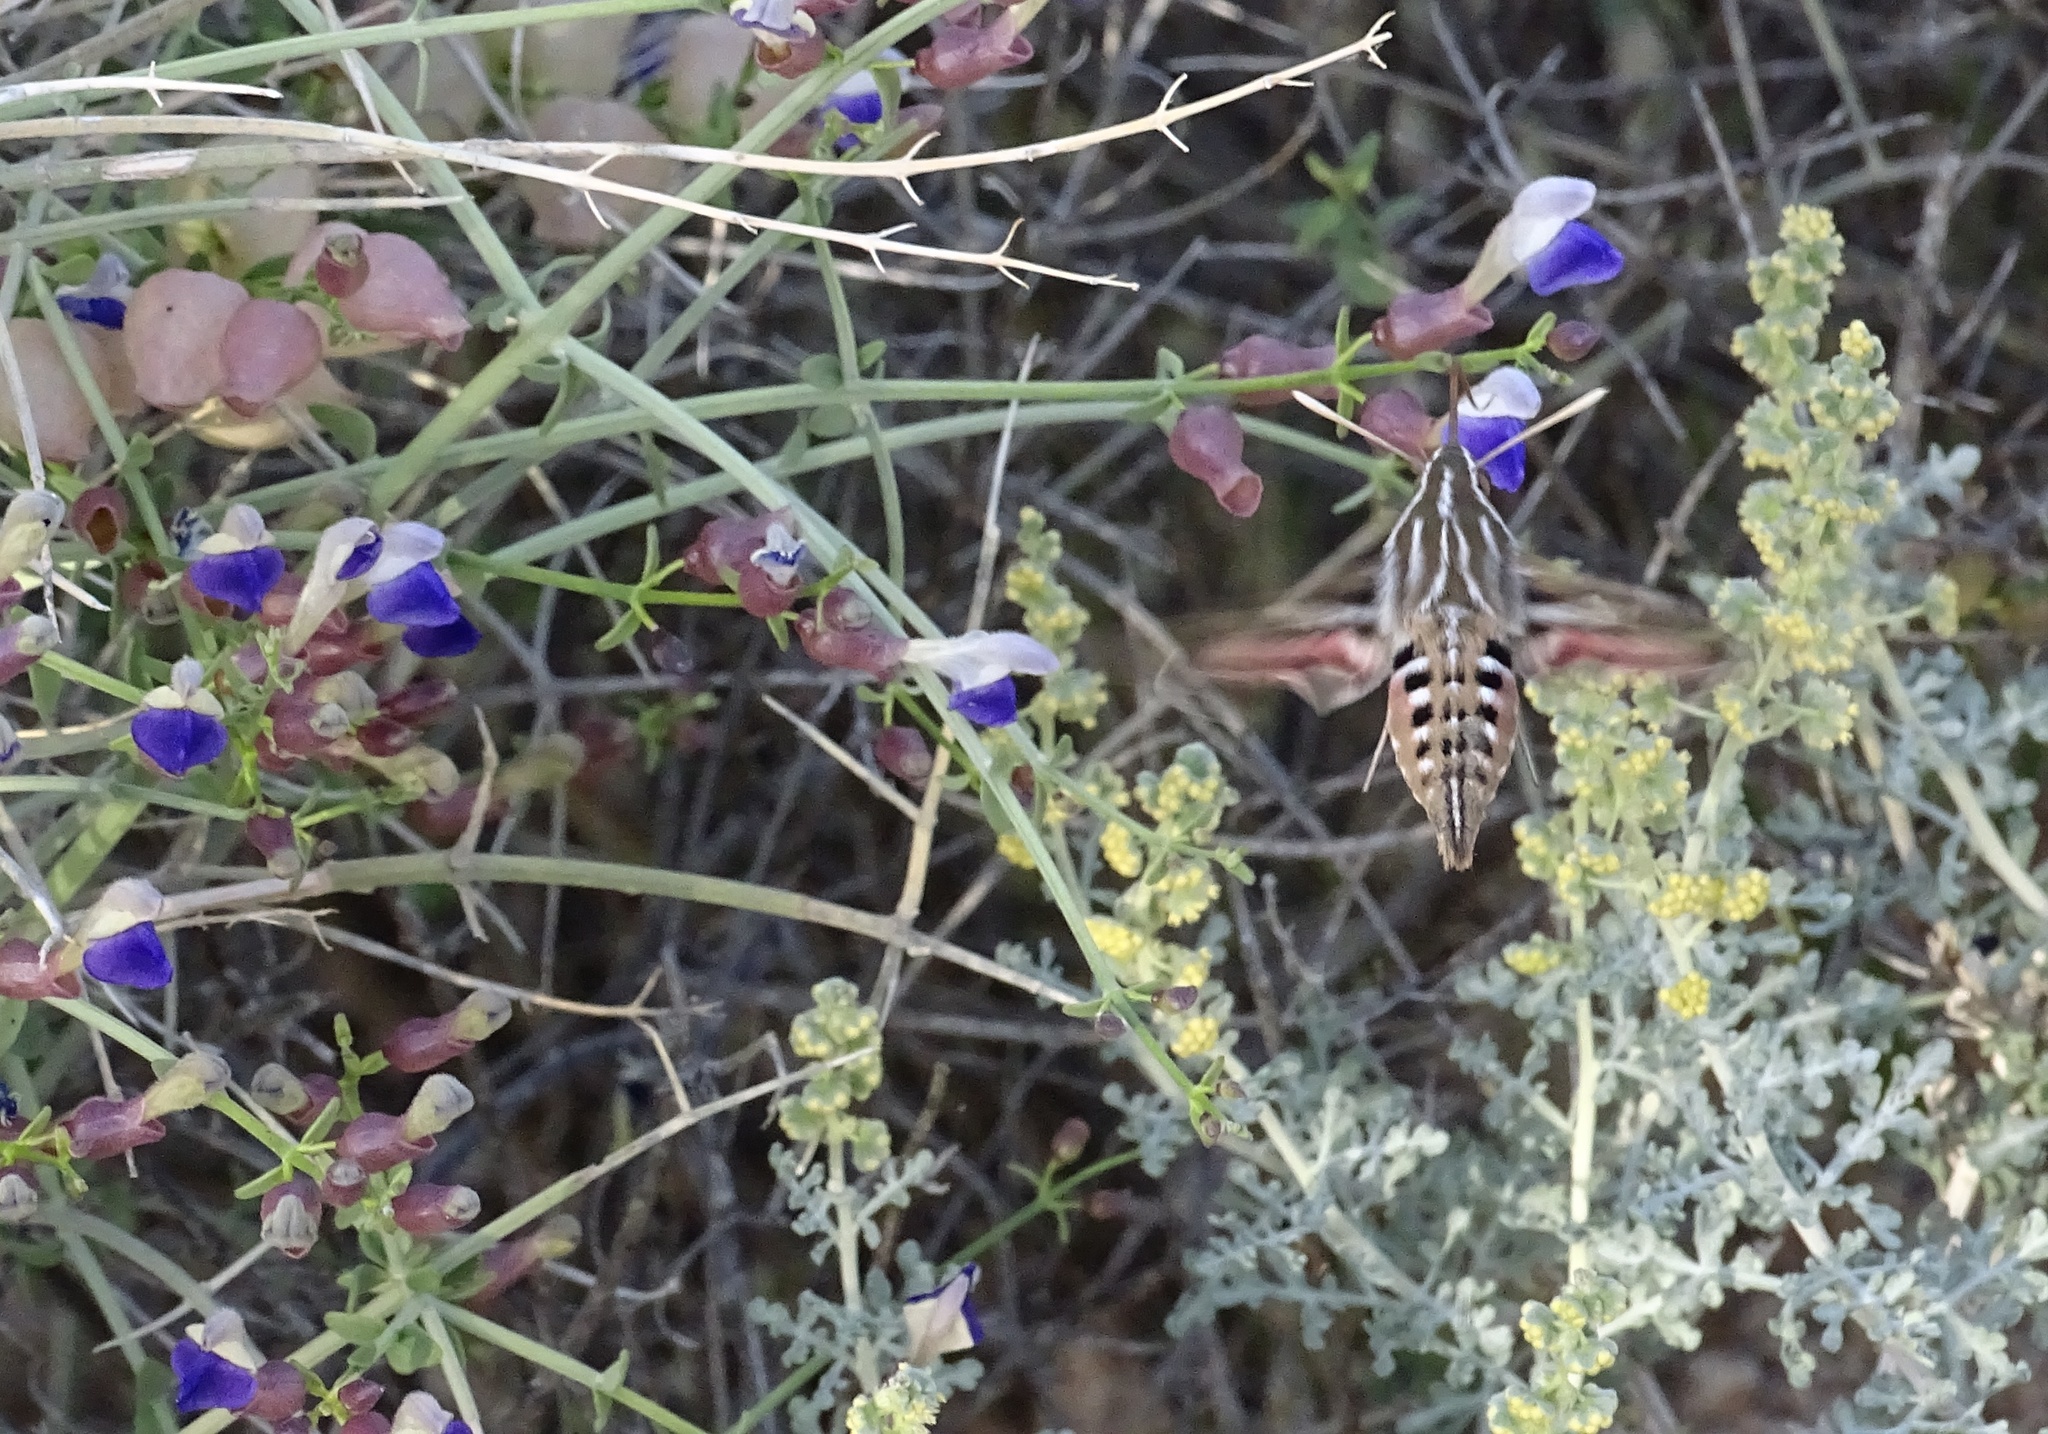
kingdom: Animalia
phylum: Arthropoda
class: Insecta
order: Lepidoptera
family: Sphingidae
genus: Hyles
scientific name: Hyles lineata
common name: White-lined sphinx
